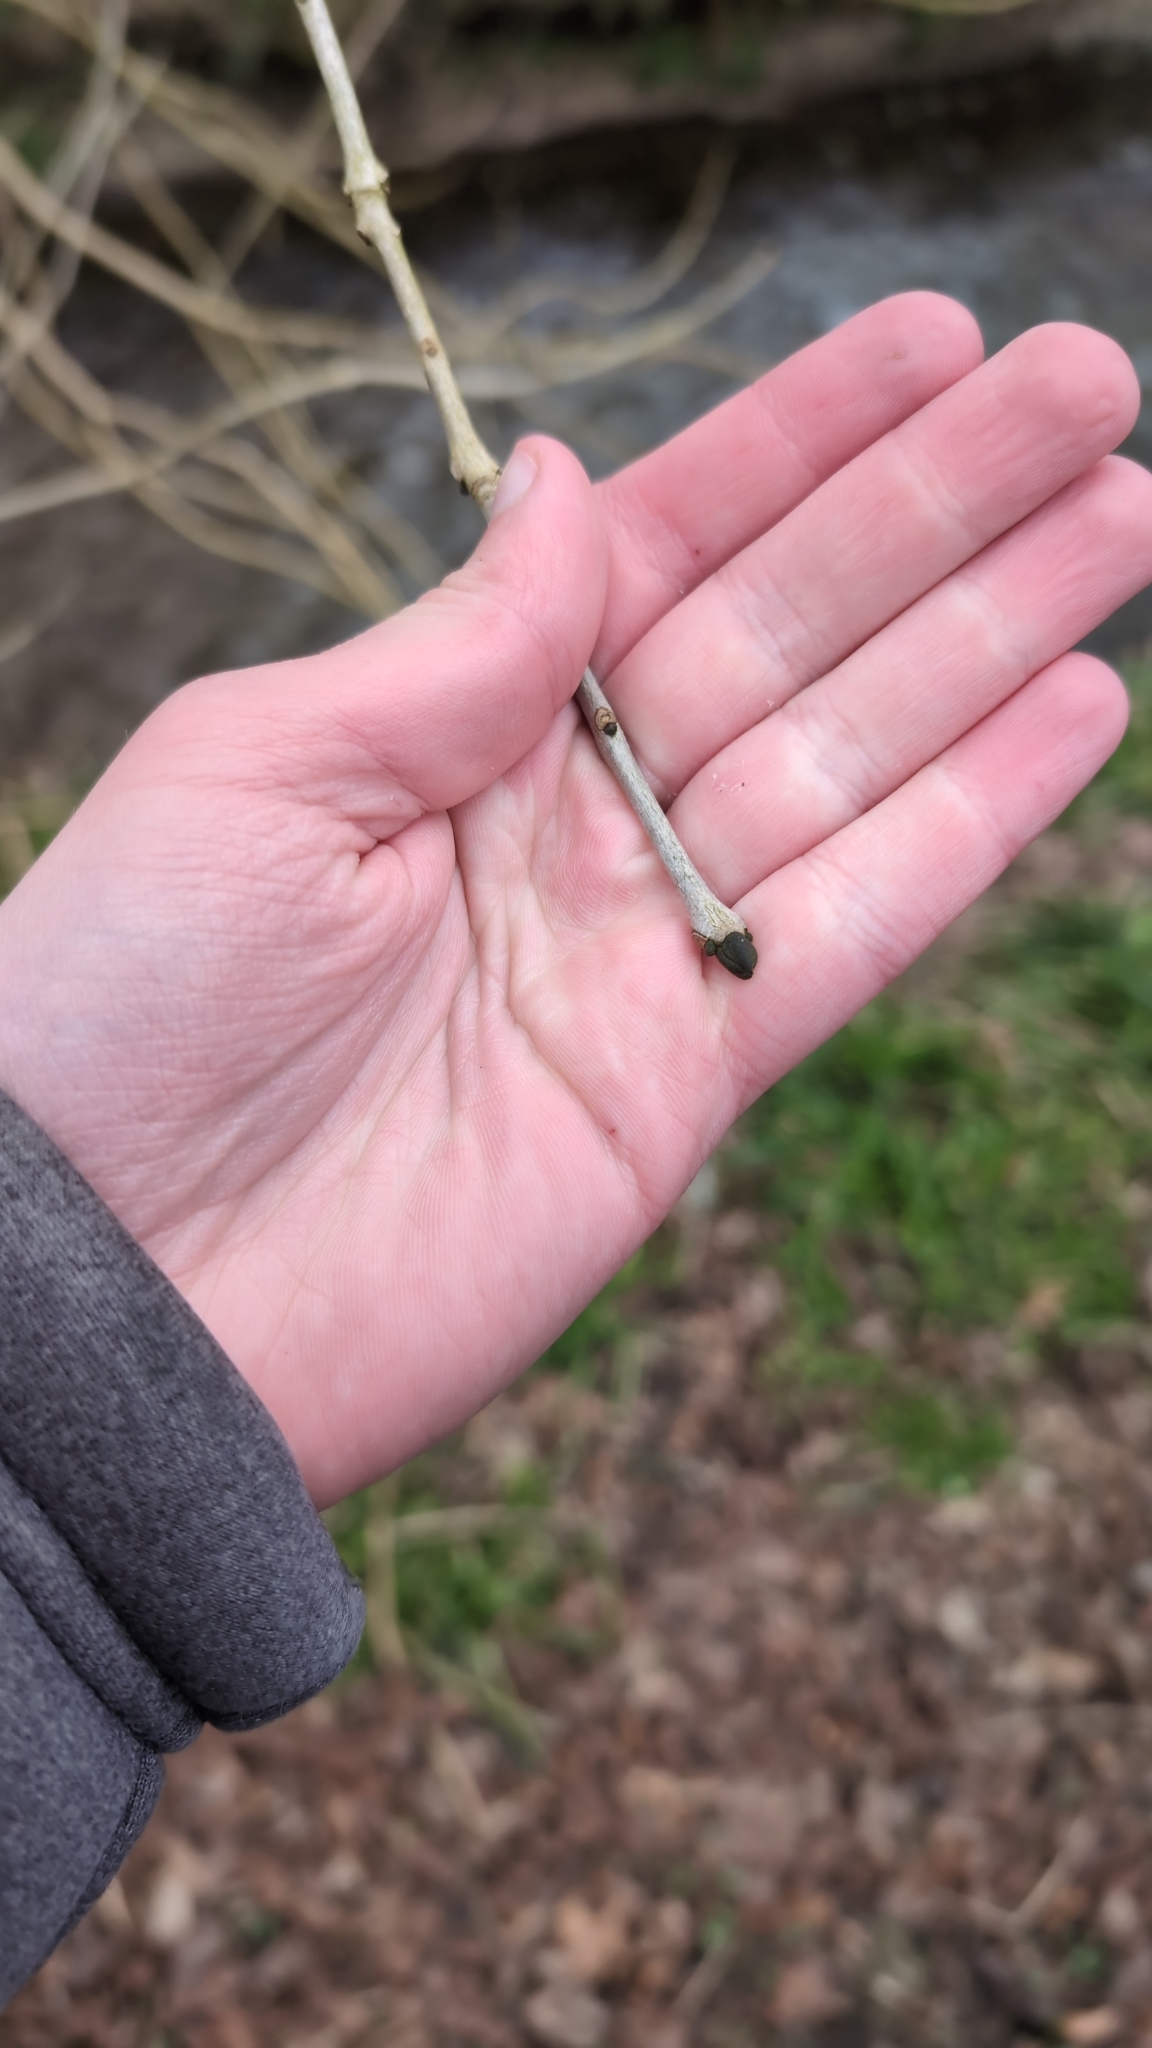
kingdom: Plantae
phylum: Tracheophyta
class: Magnoliopsida
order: Lamiales
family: Oleaceae
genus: Fraxinus
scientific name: Fraxinus excelsior
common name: European ash
